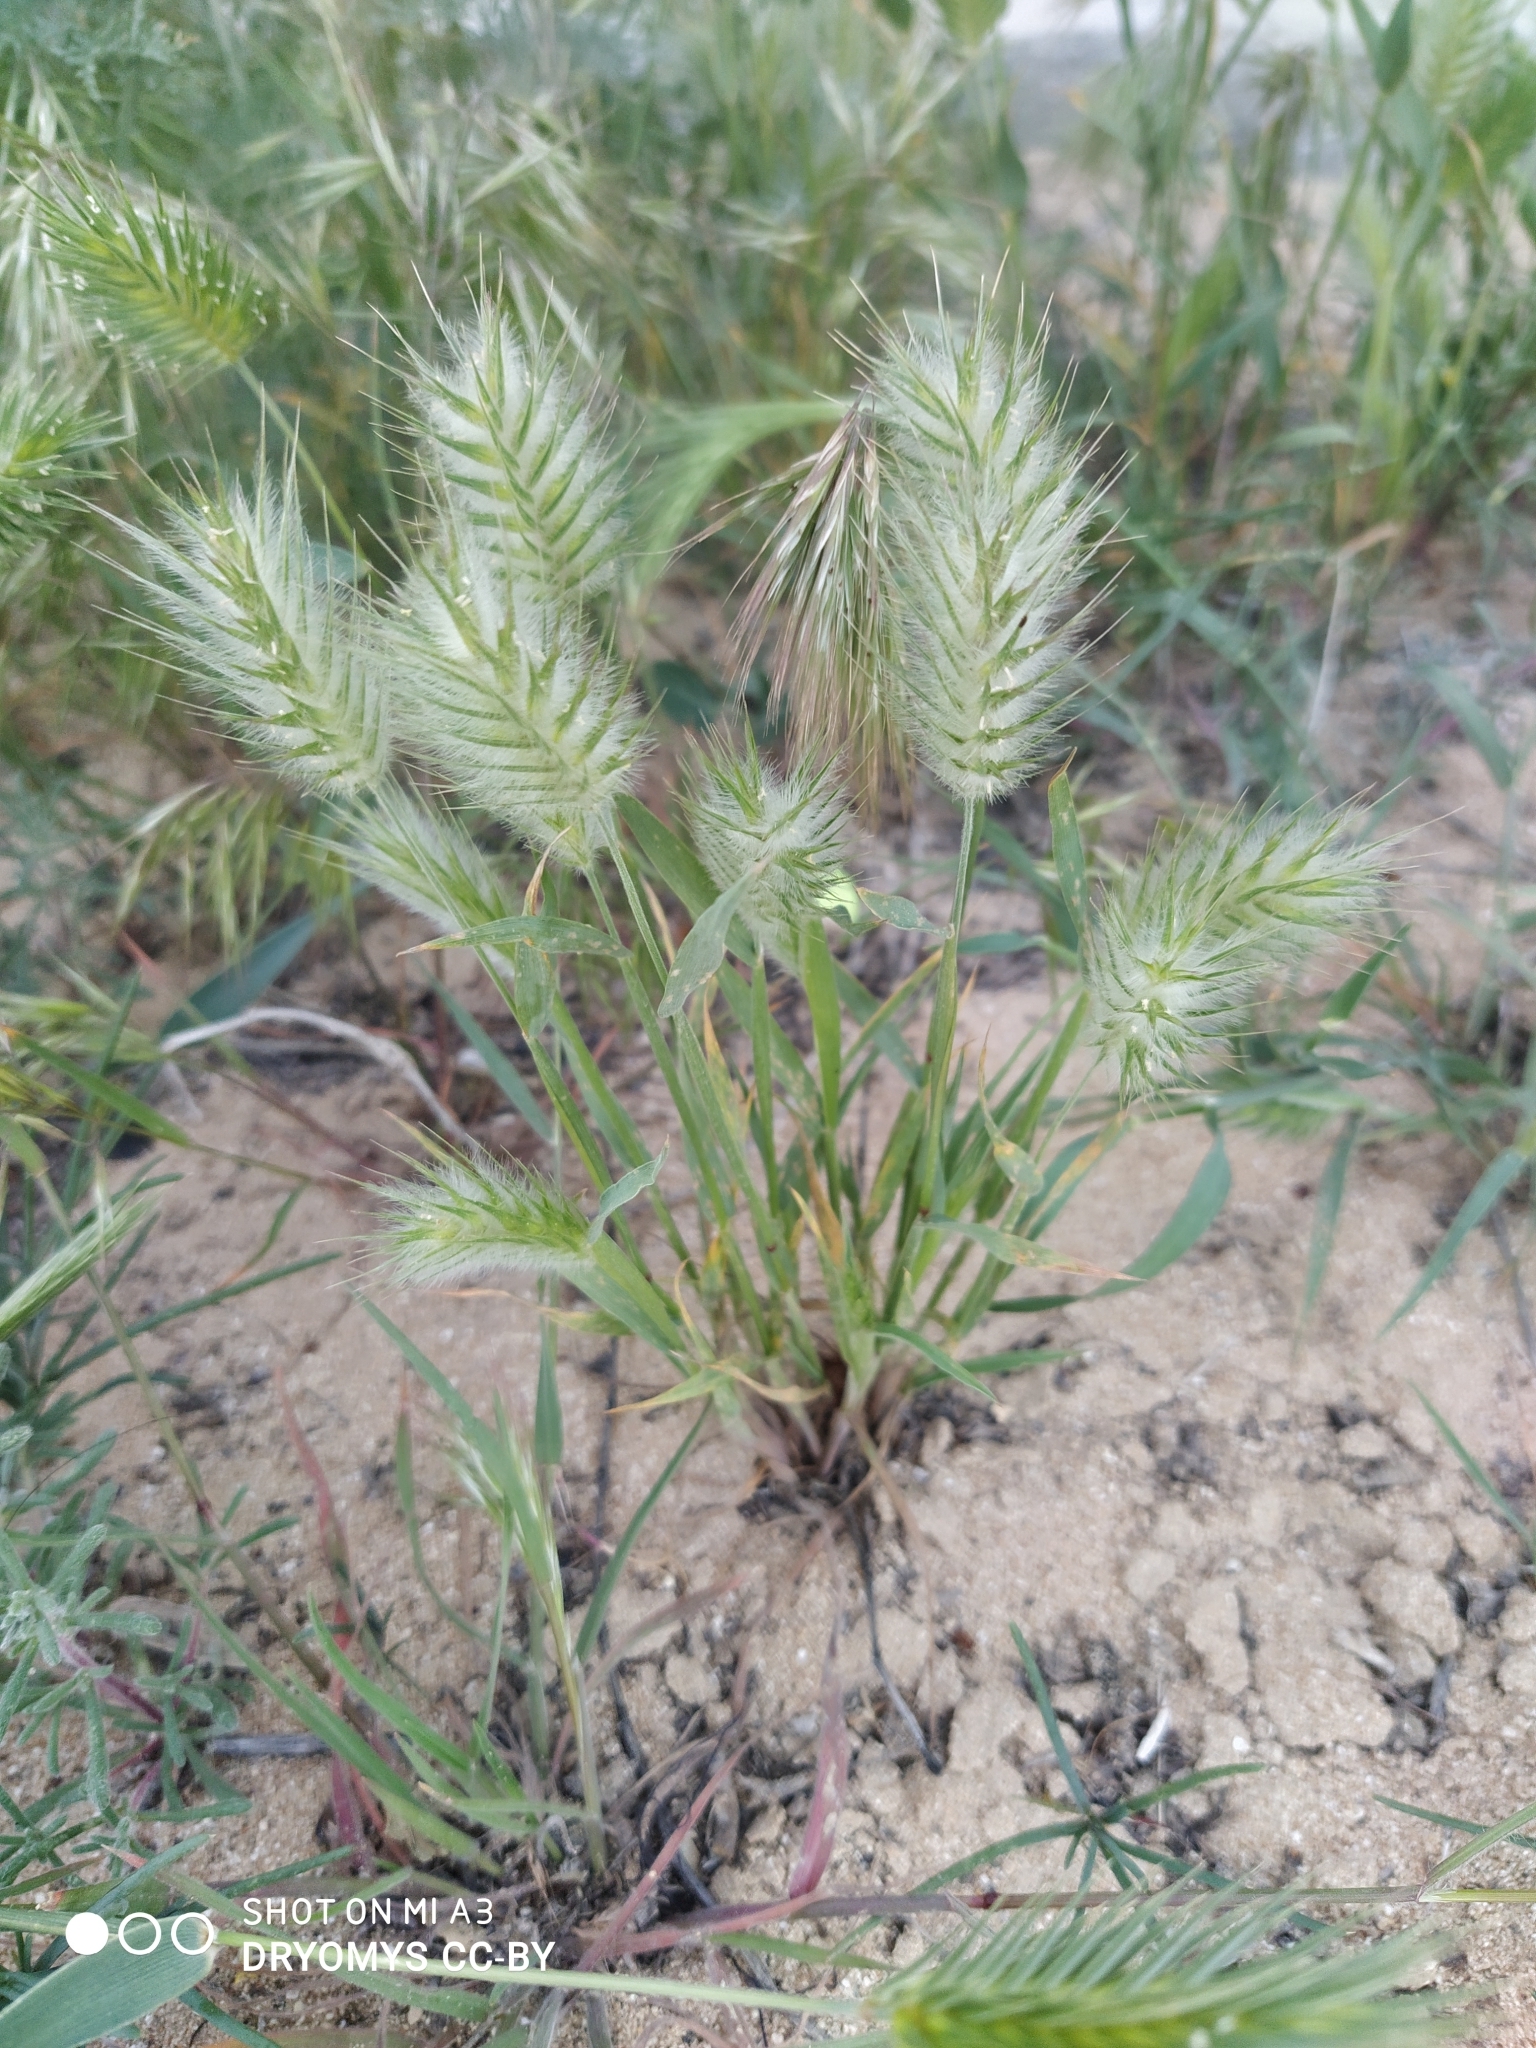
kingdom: Plantae
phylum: Tracheophyta
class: Liliopsida
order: Poales
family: Poaceae
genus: Eremopyrum
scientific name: Eremopyrum orientale
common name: Oriental false wheatgrass
